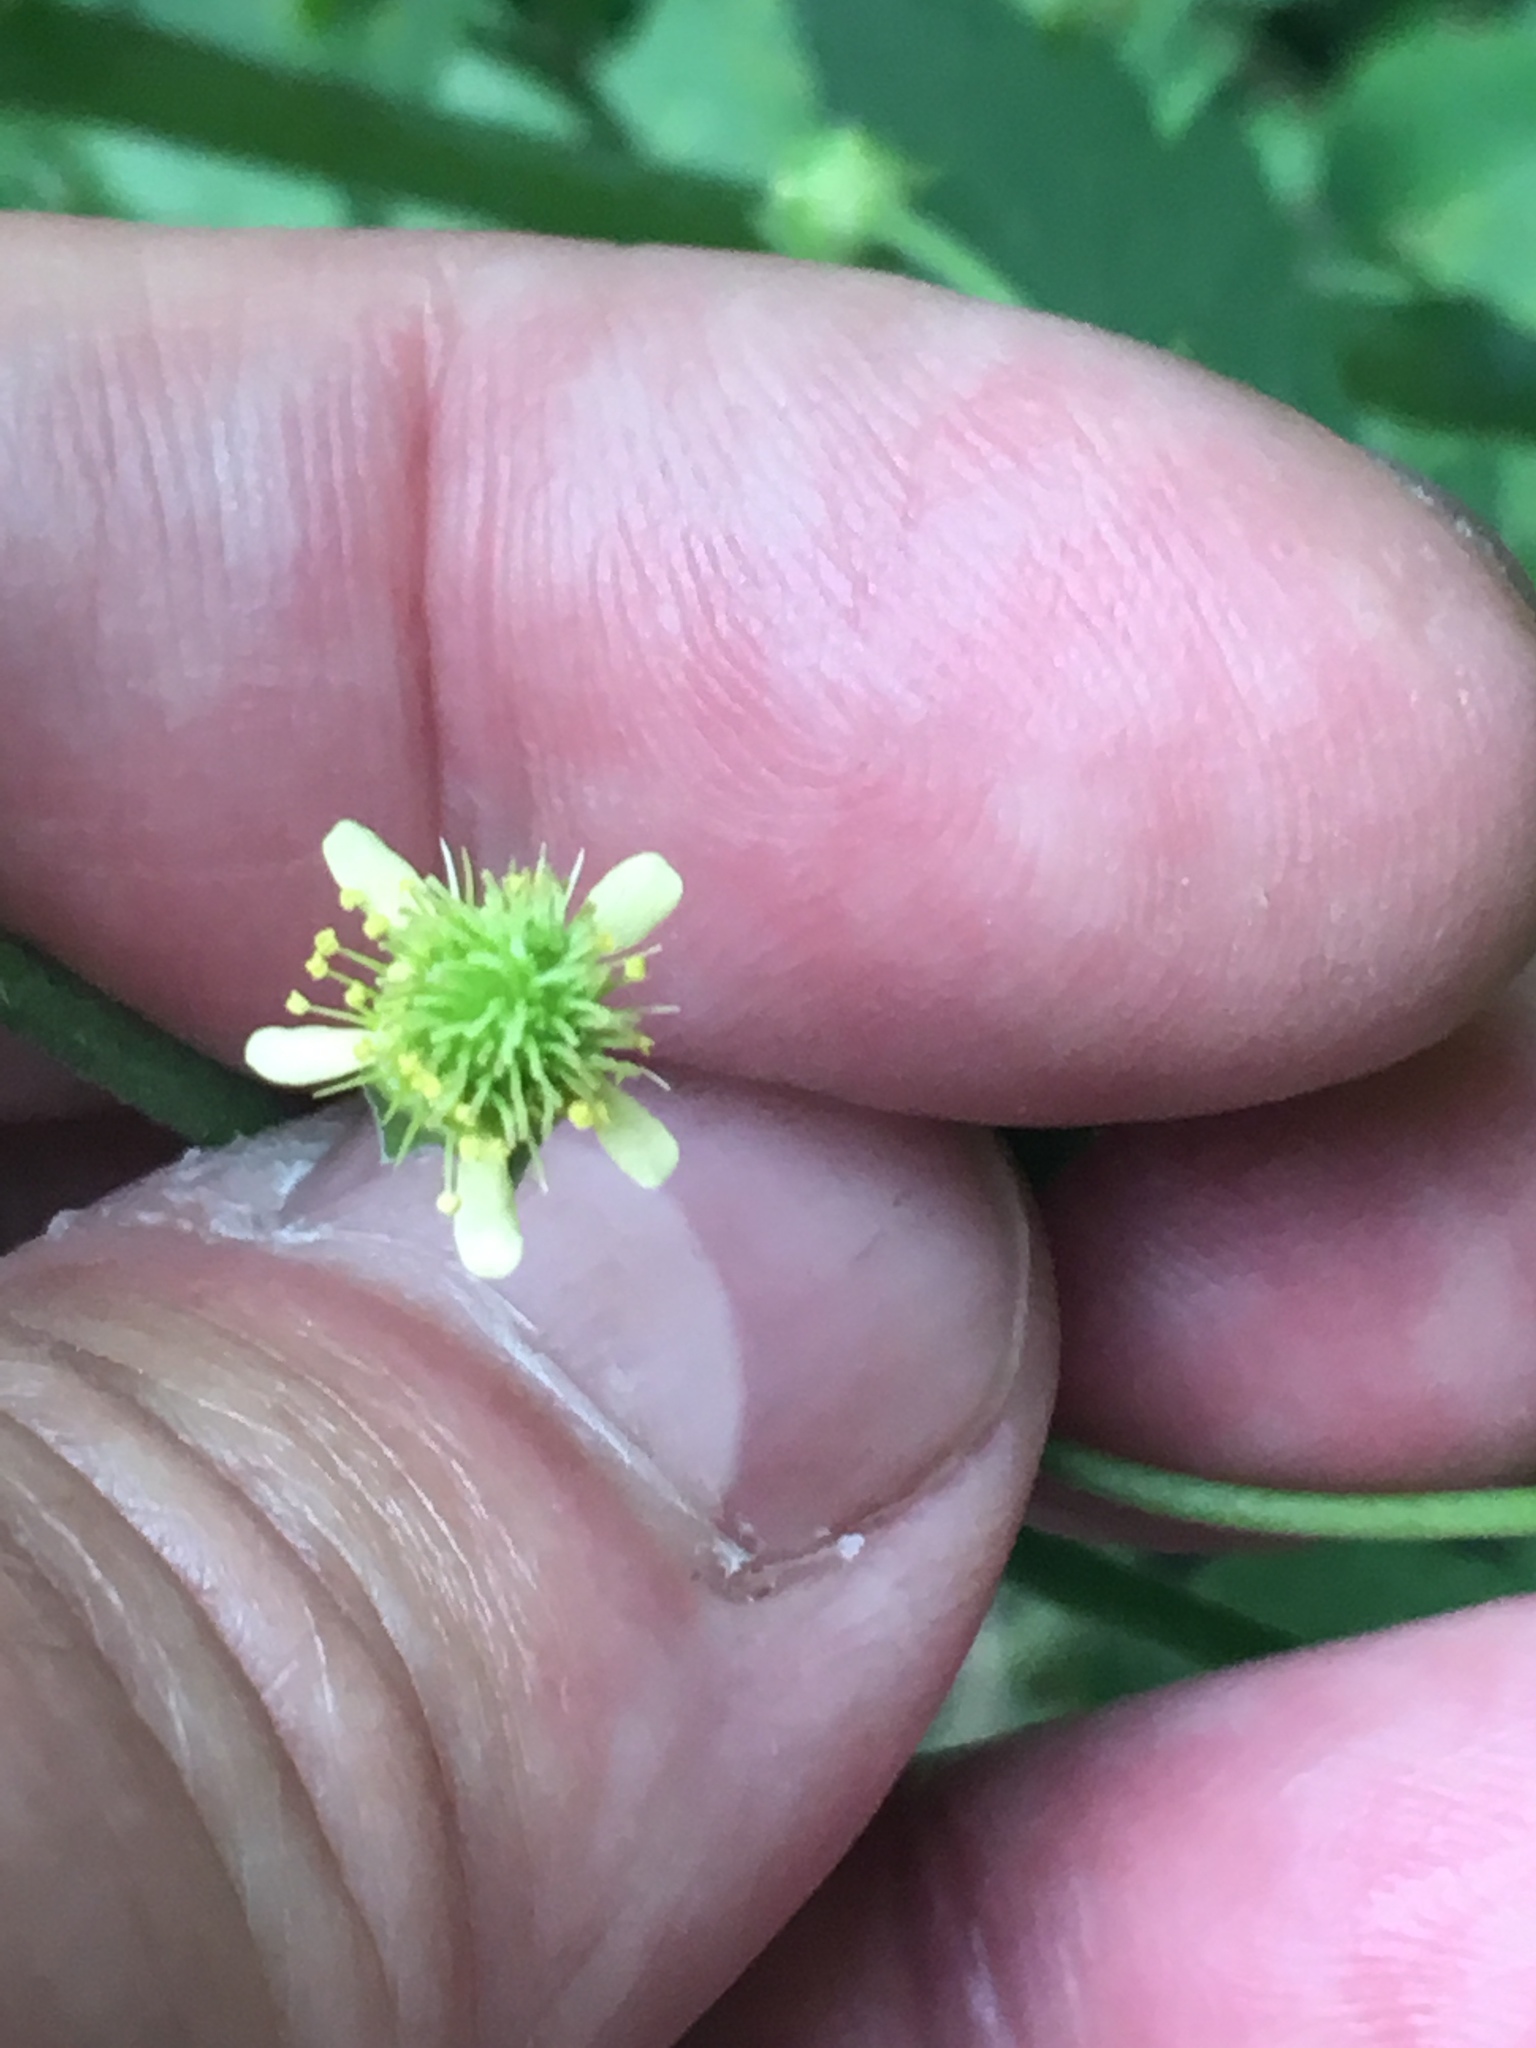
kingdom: Plantae
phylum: Tracheophyta
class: Magnoliopsida
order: Rosales
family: Rosaceae
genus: Geum
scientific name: Geum virginianum
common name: Cream avens
